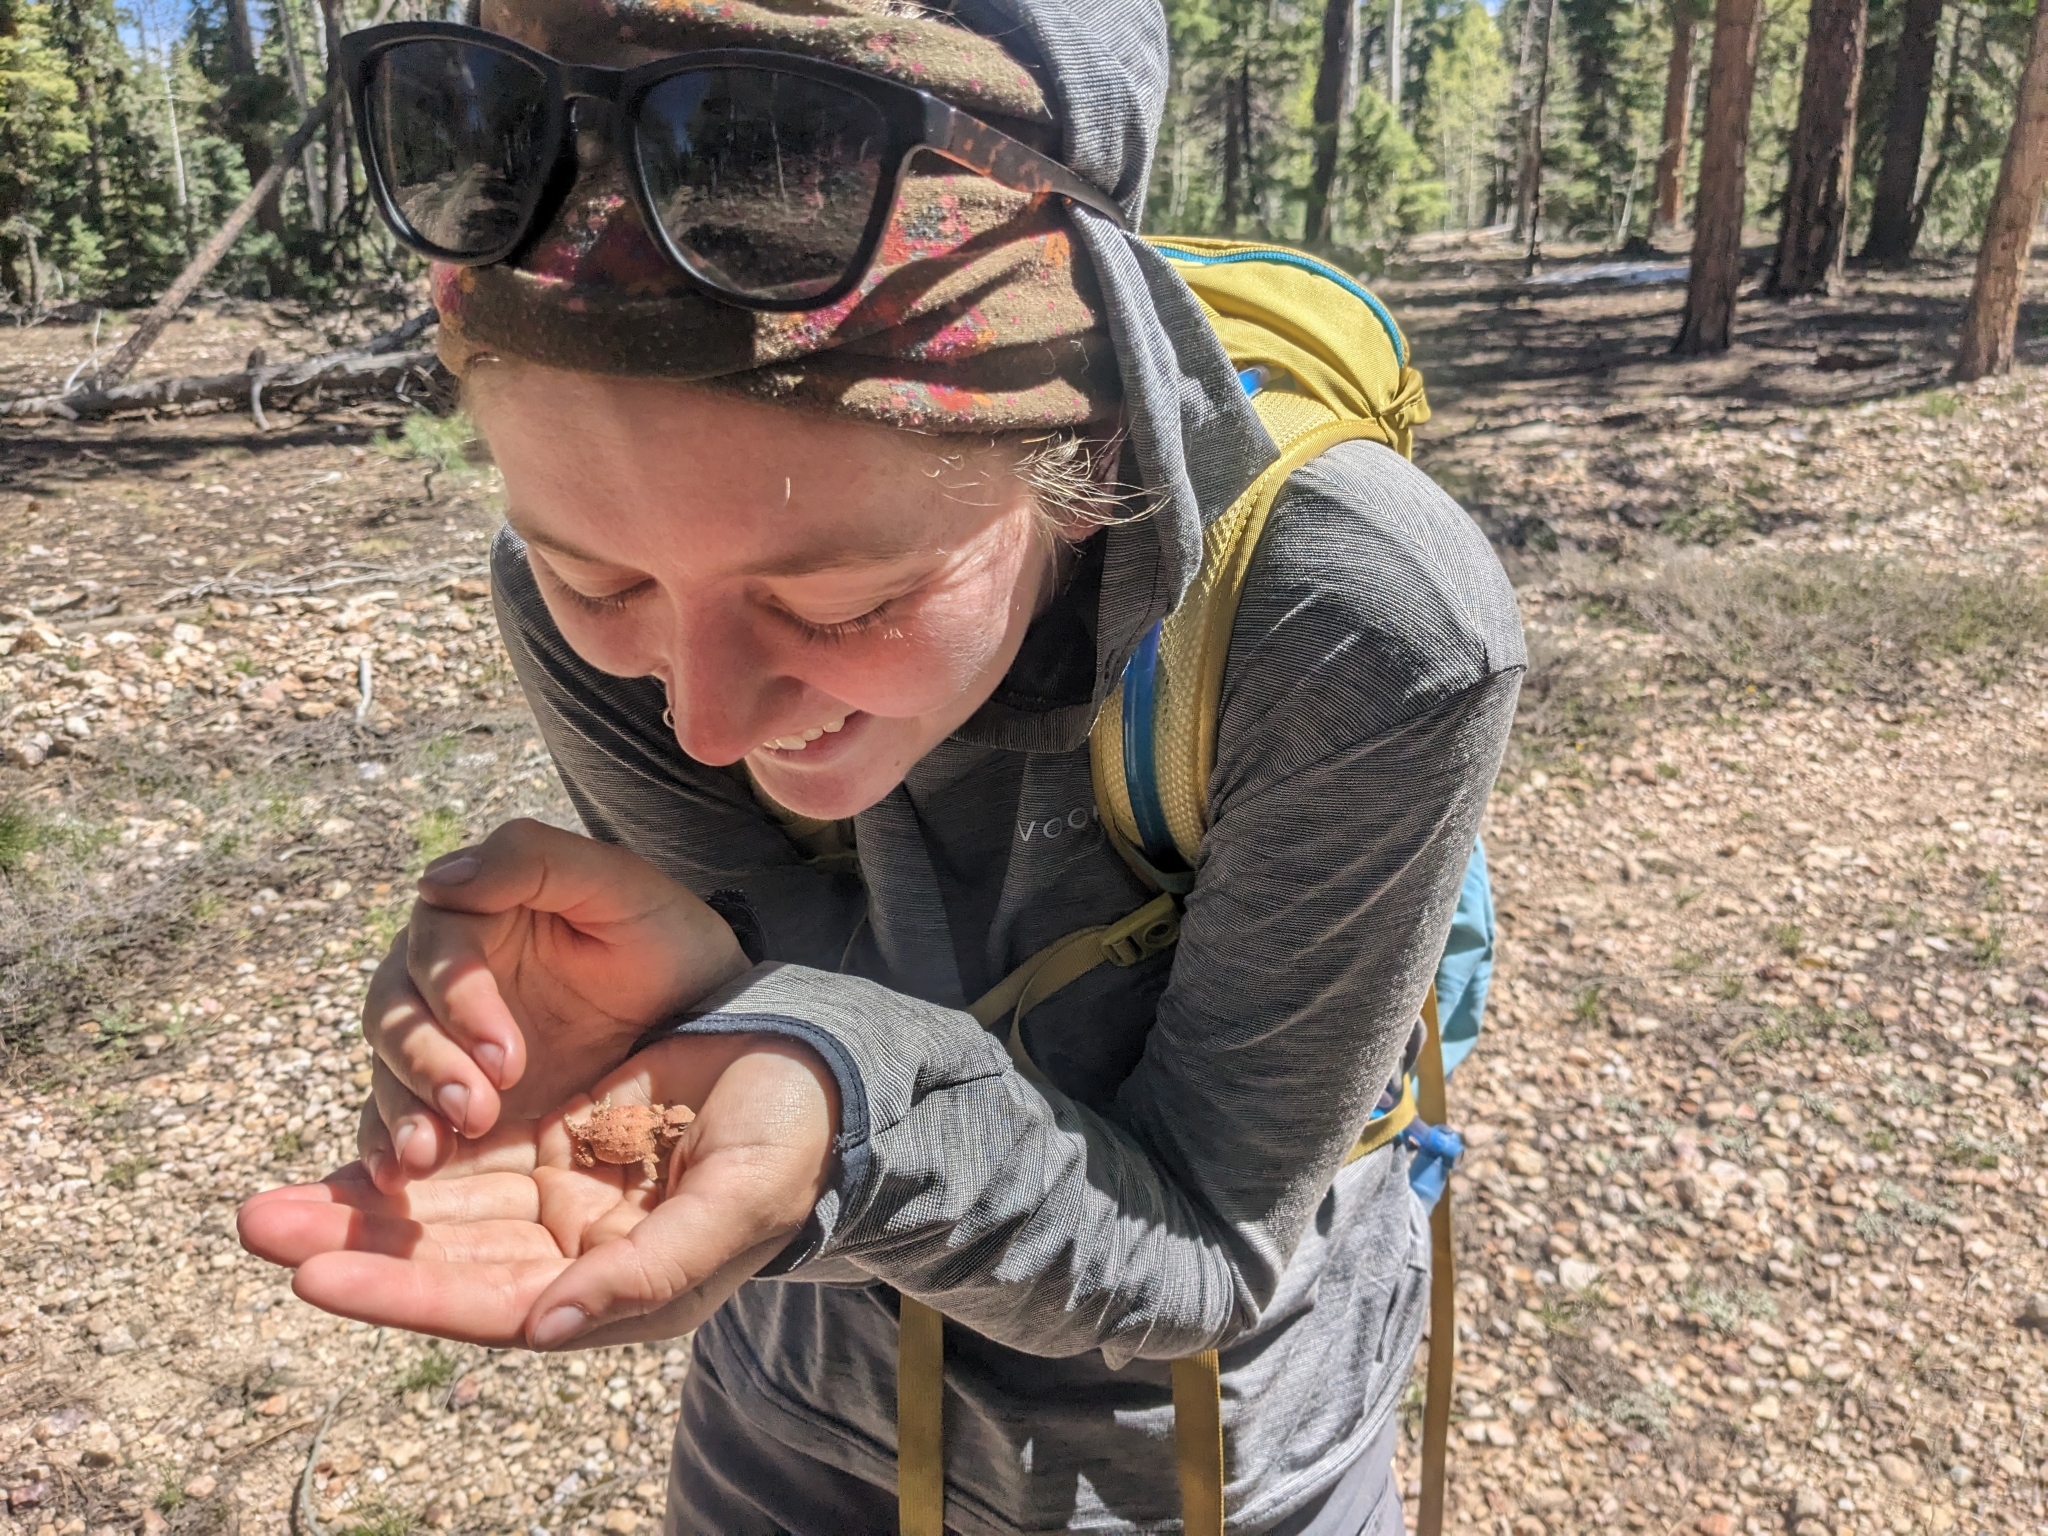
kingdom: Animalia
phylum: Chordata
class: Squamata
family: Phrynosomatidae
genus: Phrynosoma
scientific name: Phrynosoma hernandesi
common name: Greater short-horned lizard
